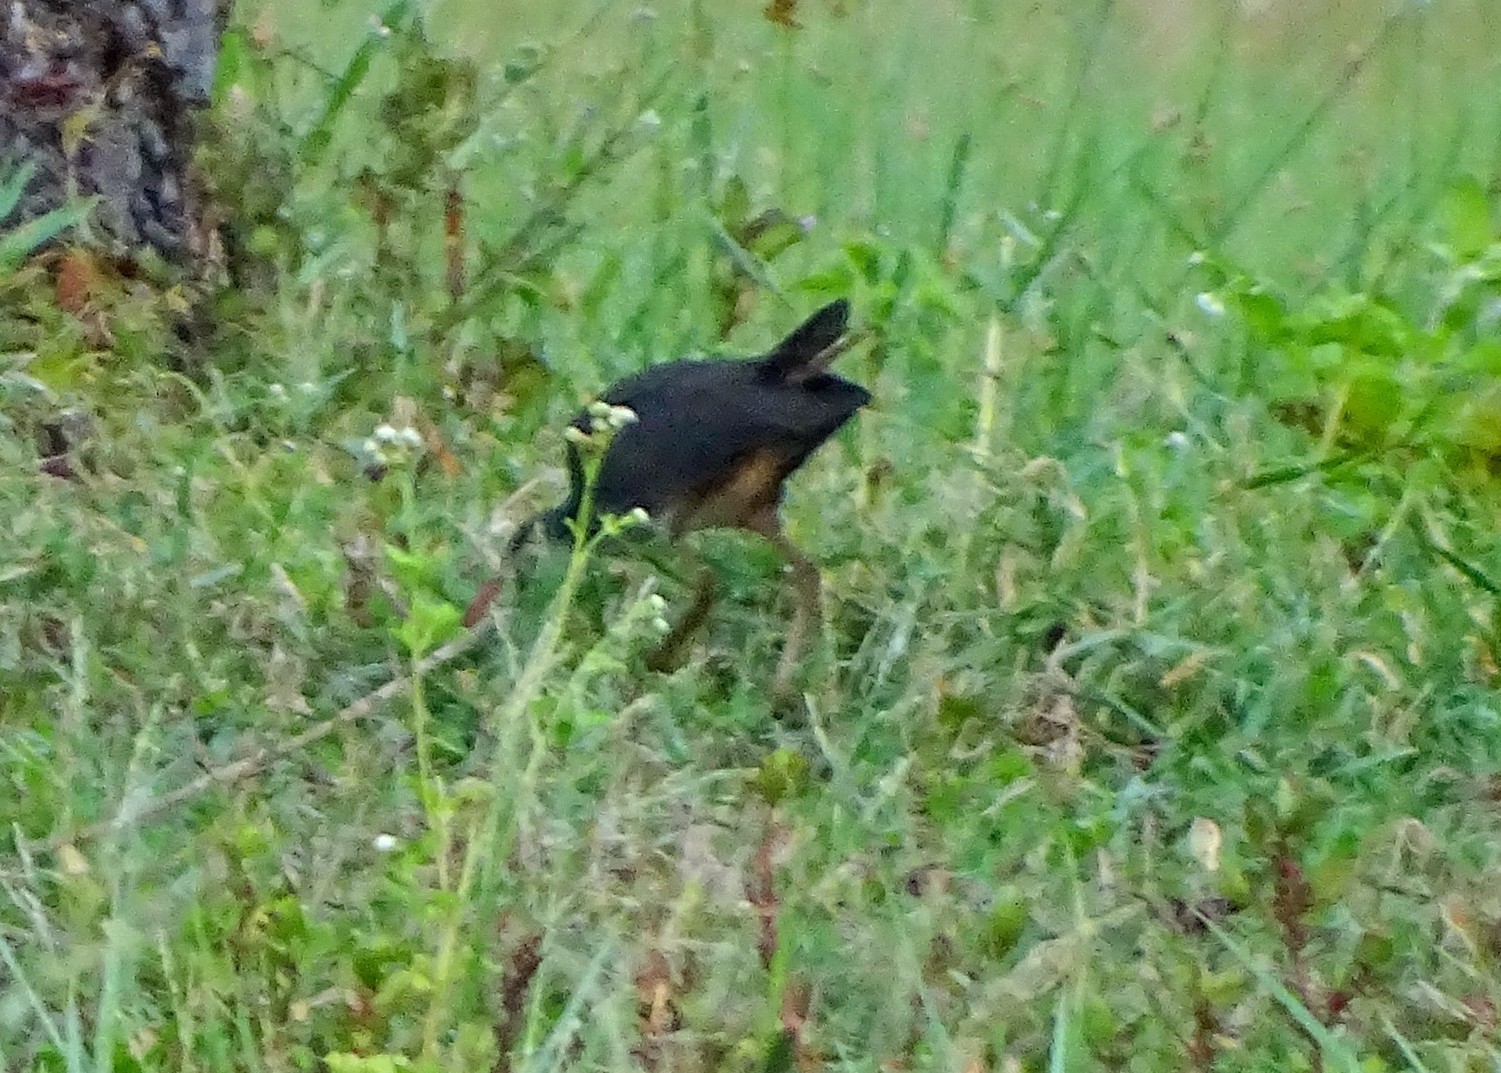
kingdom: Animalia
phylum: Chordata
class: Aves
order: Gruiformes
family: Rallidae
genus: Amaurornis
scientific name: Amaurornis phoenicurus
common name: White-breasted waterhen
